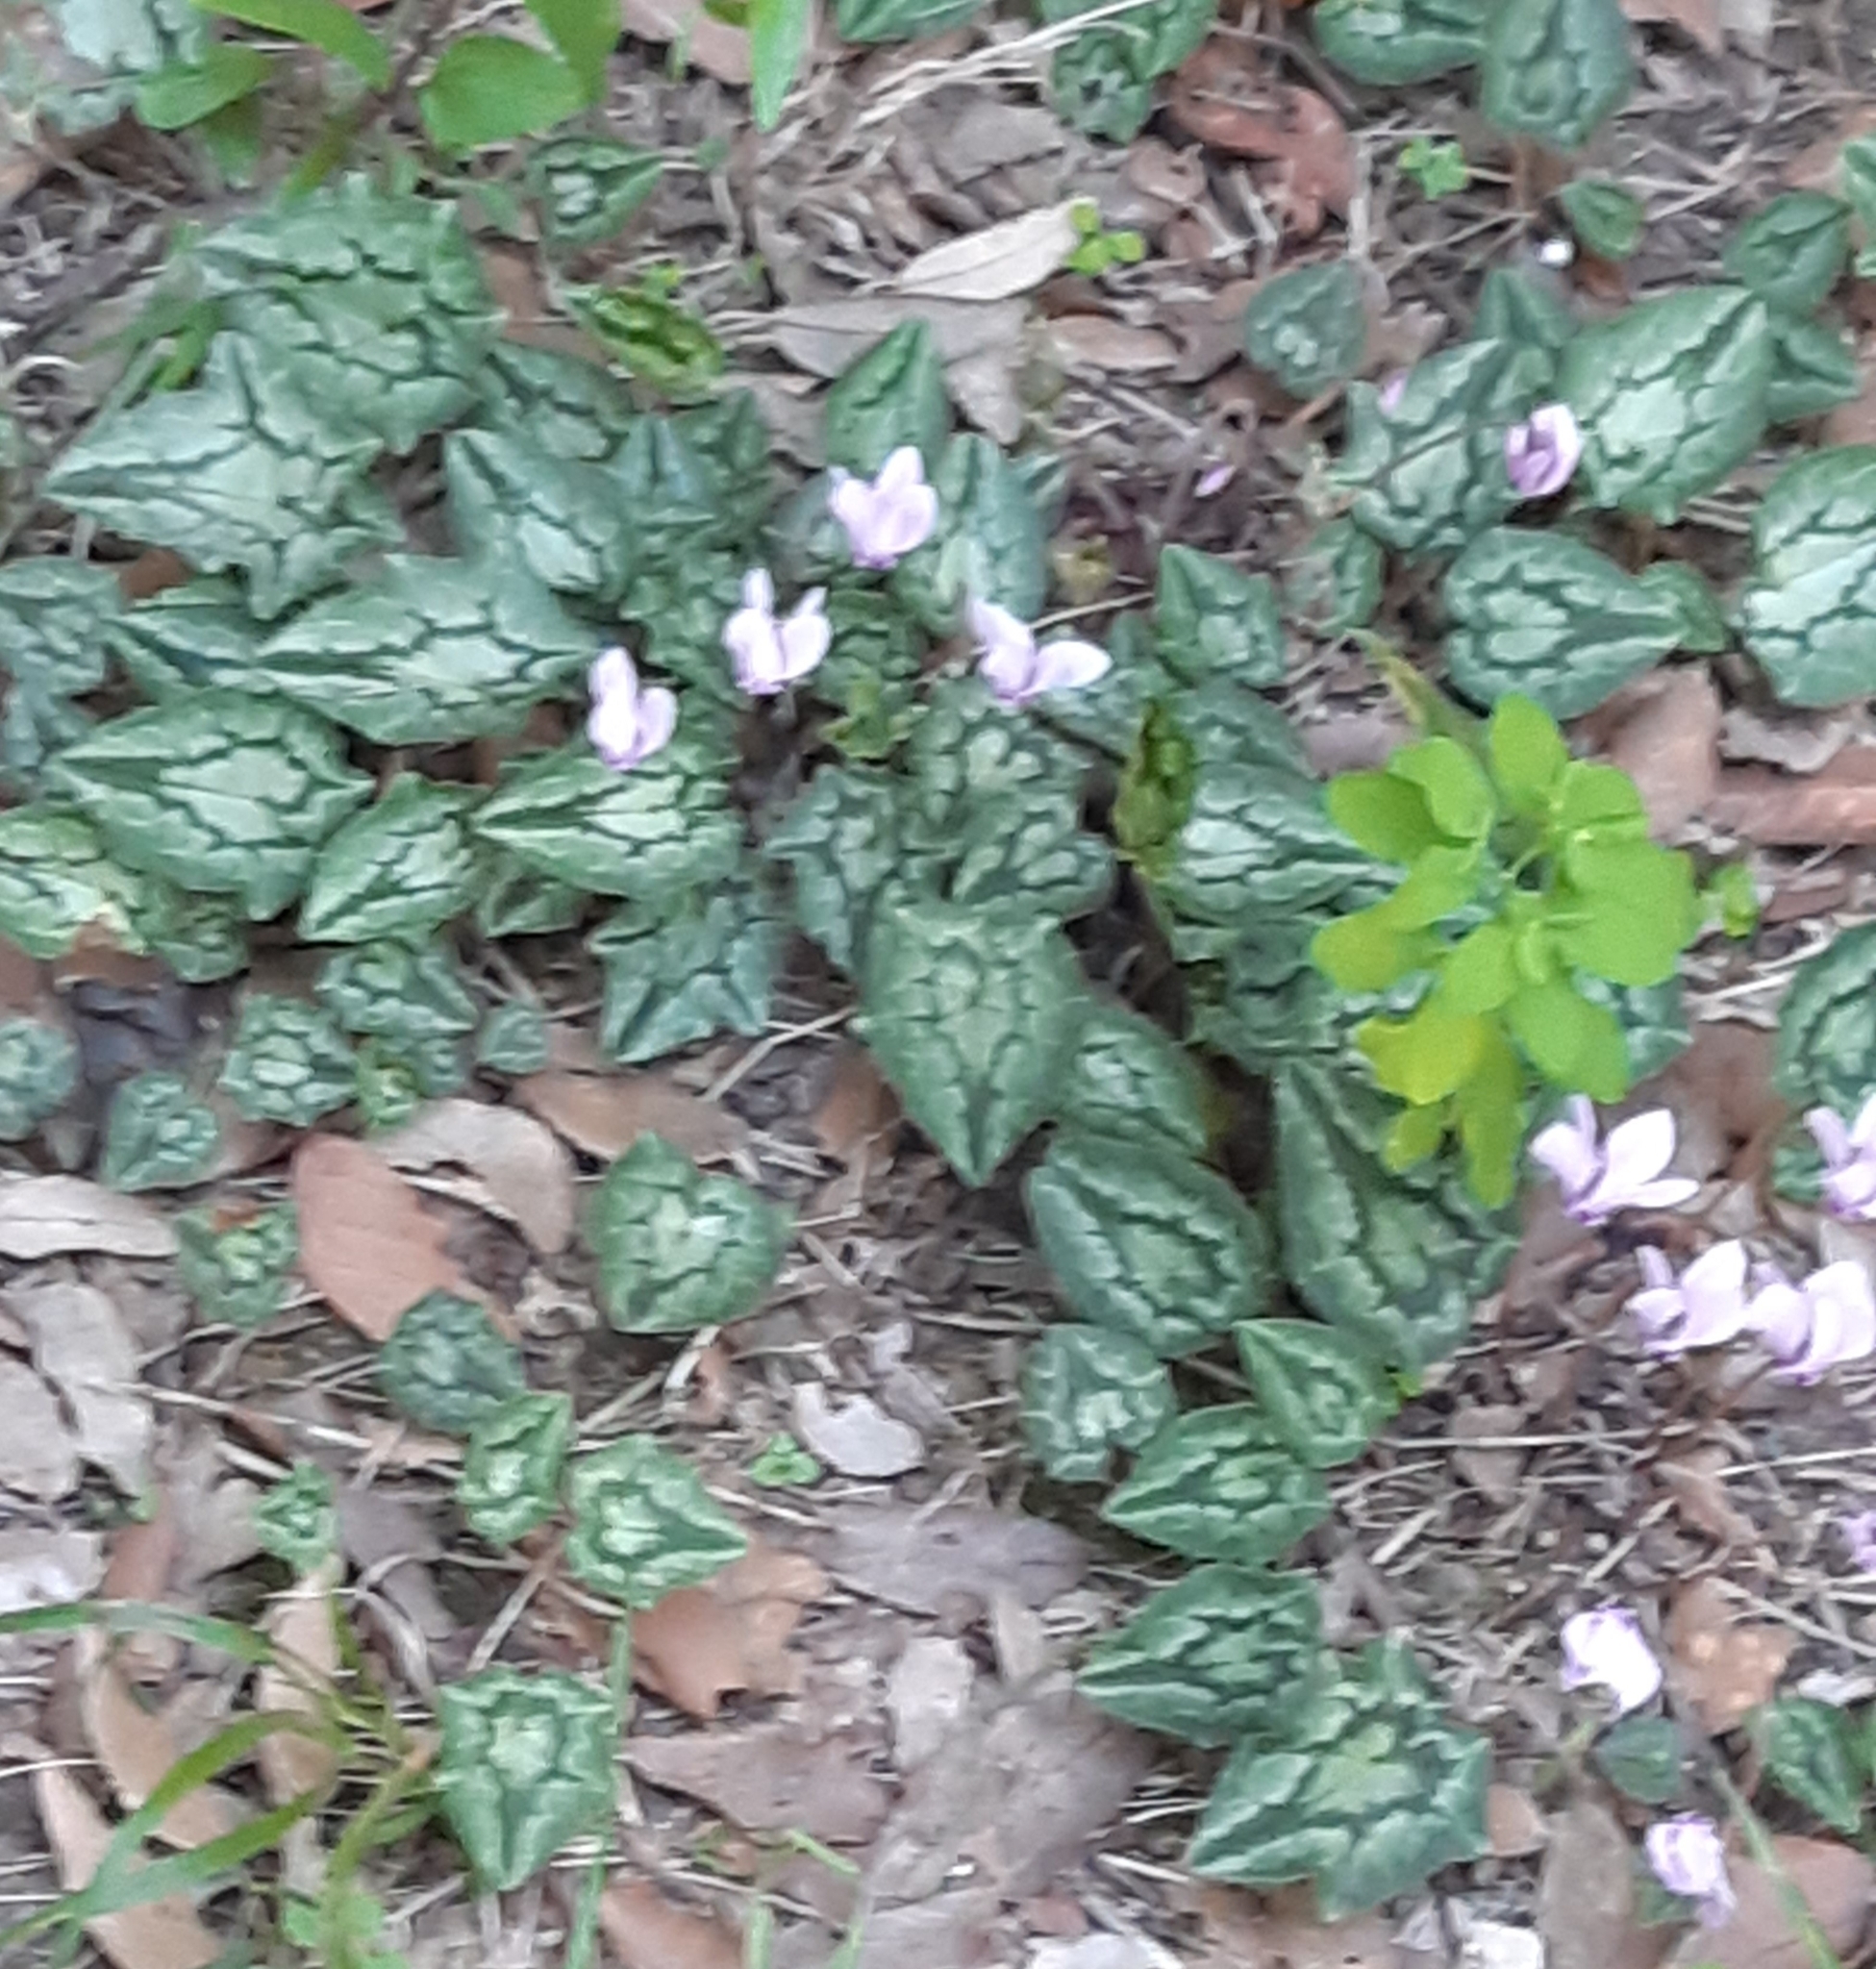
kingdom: Plantae
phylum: Tracheophyta
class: Magnoliopsida
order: Ericales
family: Primulaceae
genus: Cyclamen
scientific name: Cyclamen hederifolium
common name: Sowbread
